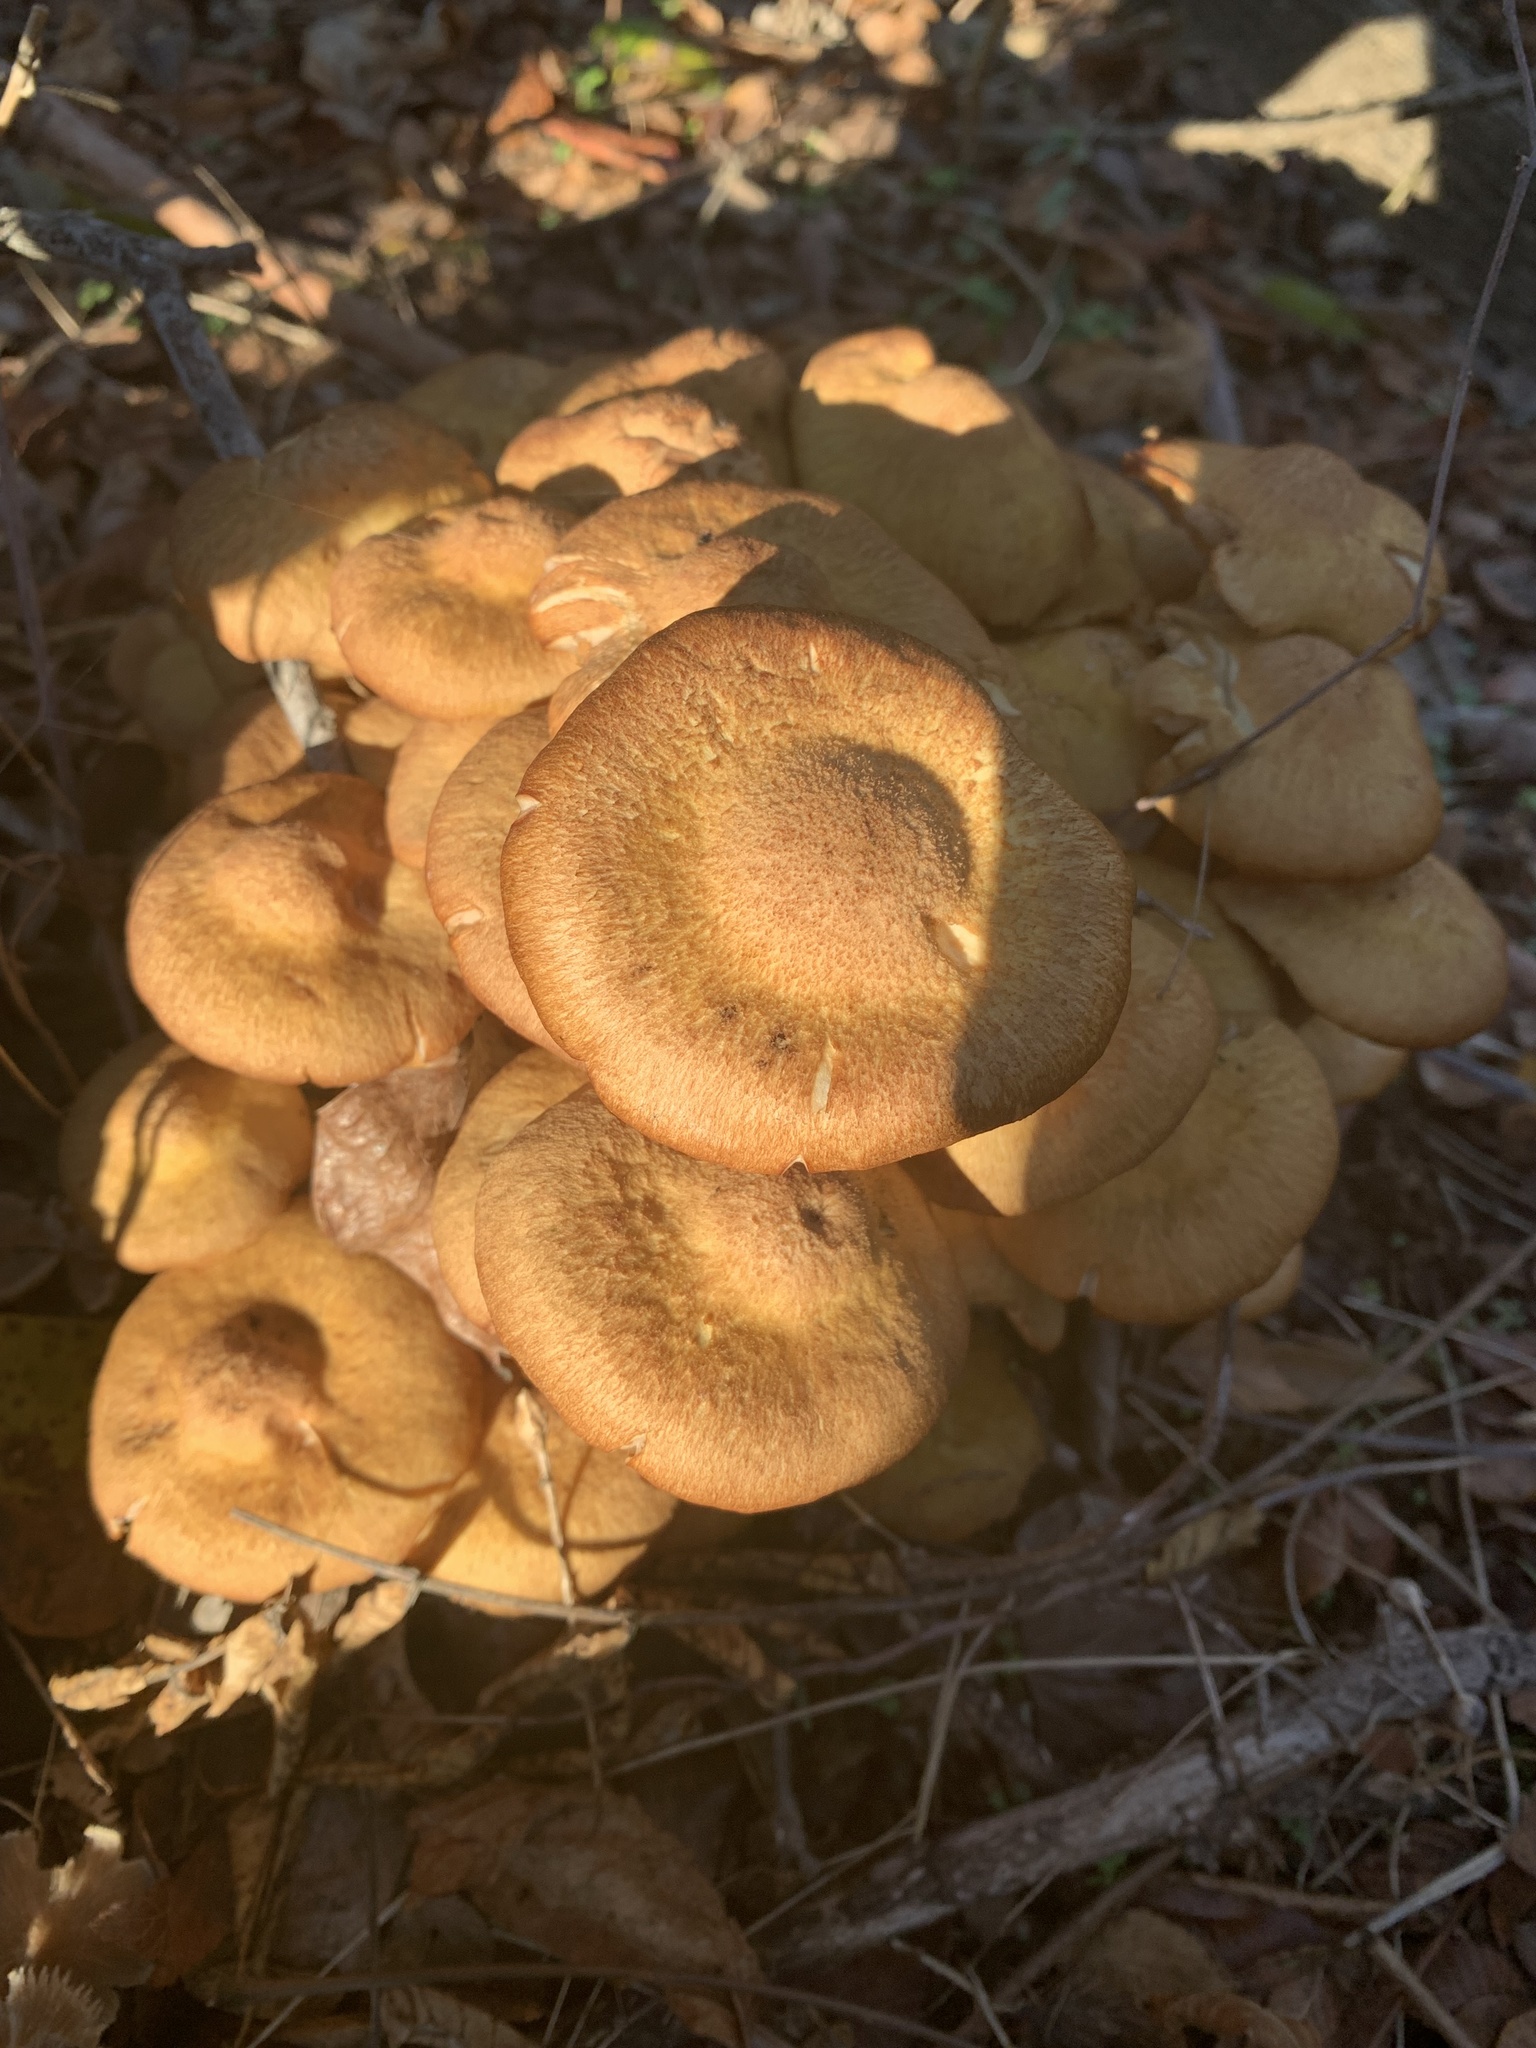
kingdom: Fungi
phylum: Basidiomycota
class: Agaricomycetes
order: Agaricales
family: Physalacriaceae
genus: Desarmillaria
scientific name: Desarmillaria caespitosa
